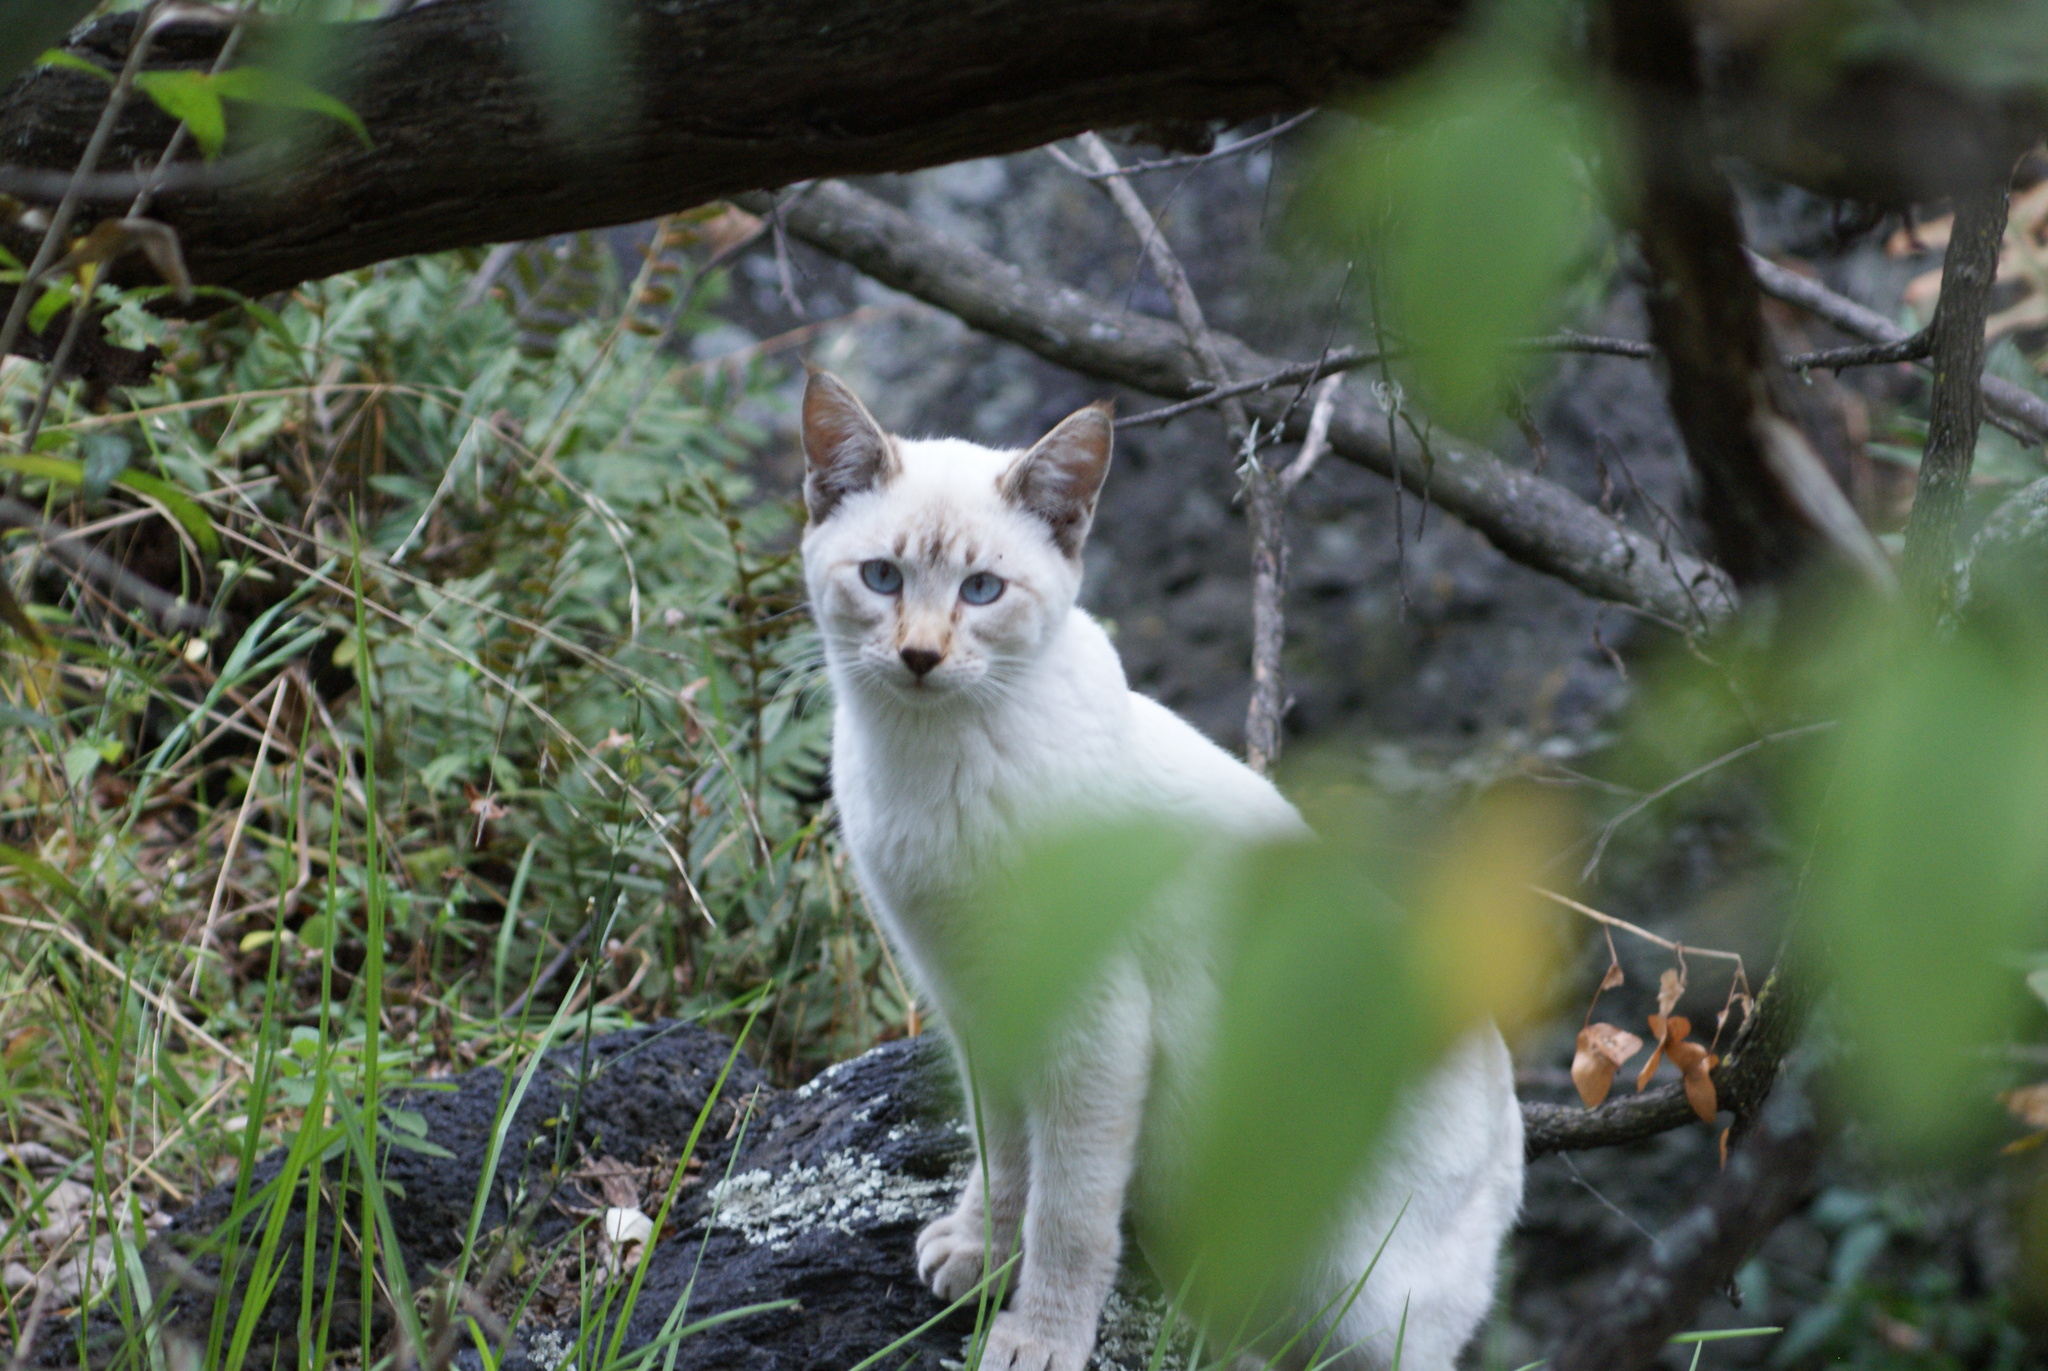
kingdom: Animalia
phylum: Chordata
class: Mammalia
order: Carnivora
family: Felidae
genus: Felis
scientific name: Felis catus
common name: Domestic cat
